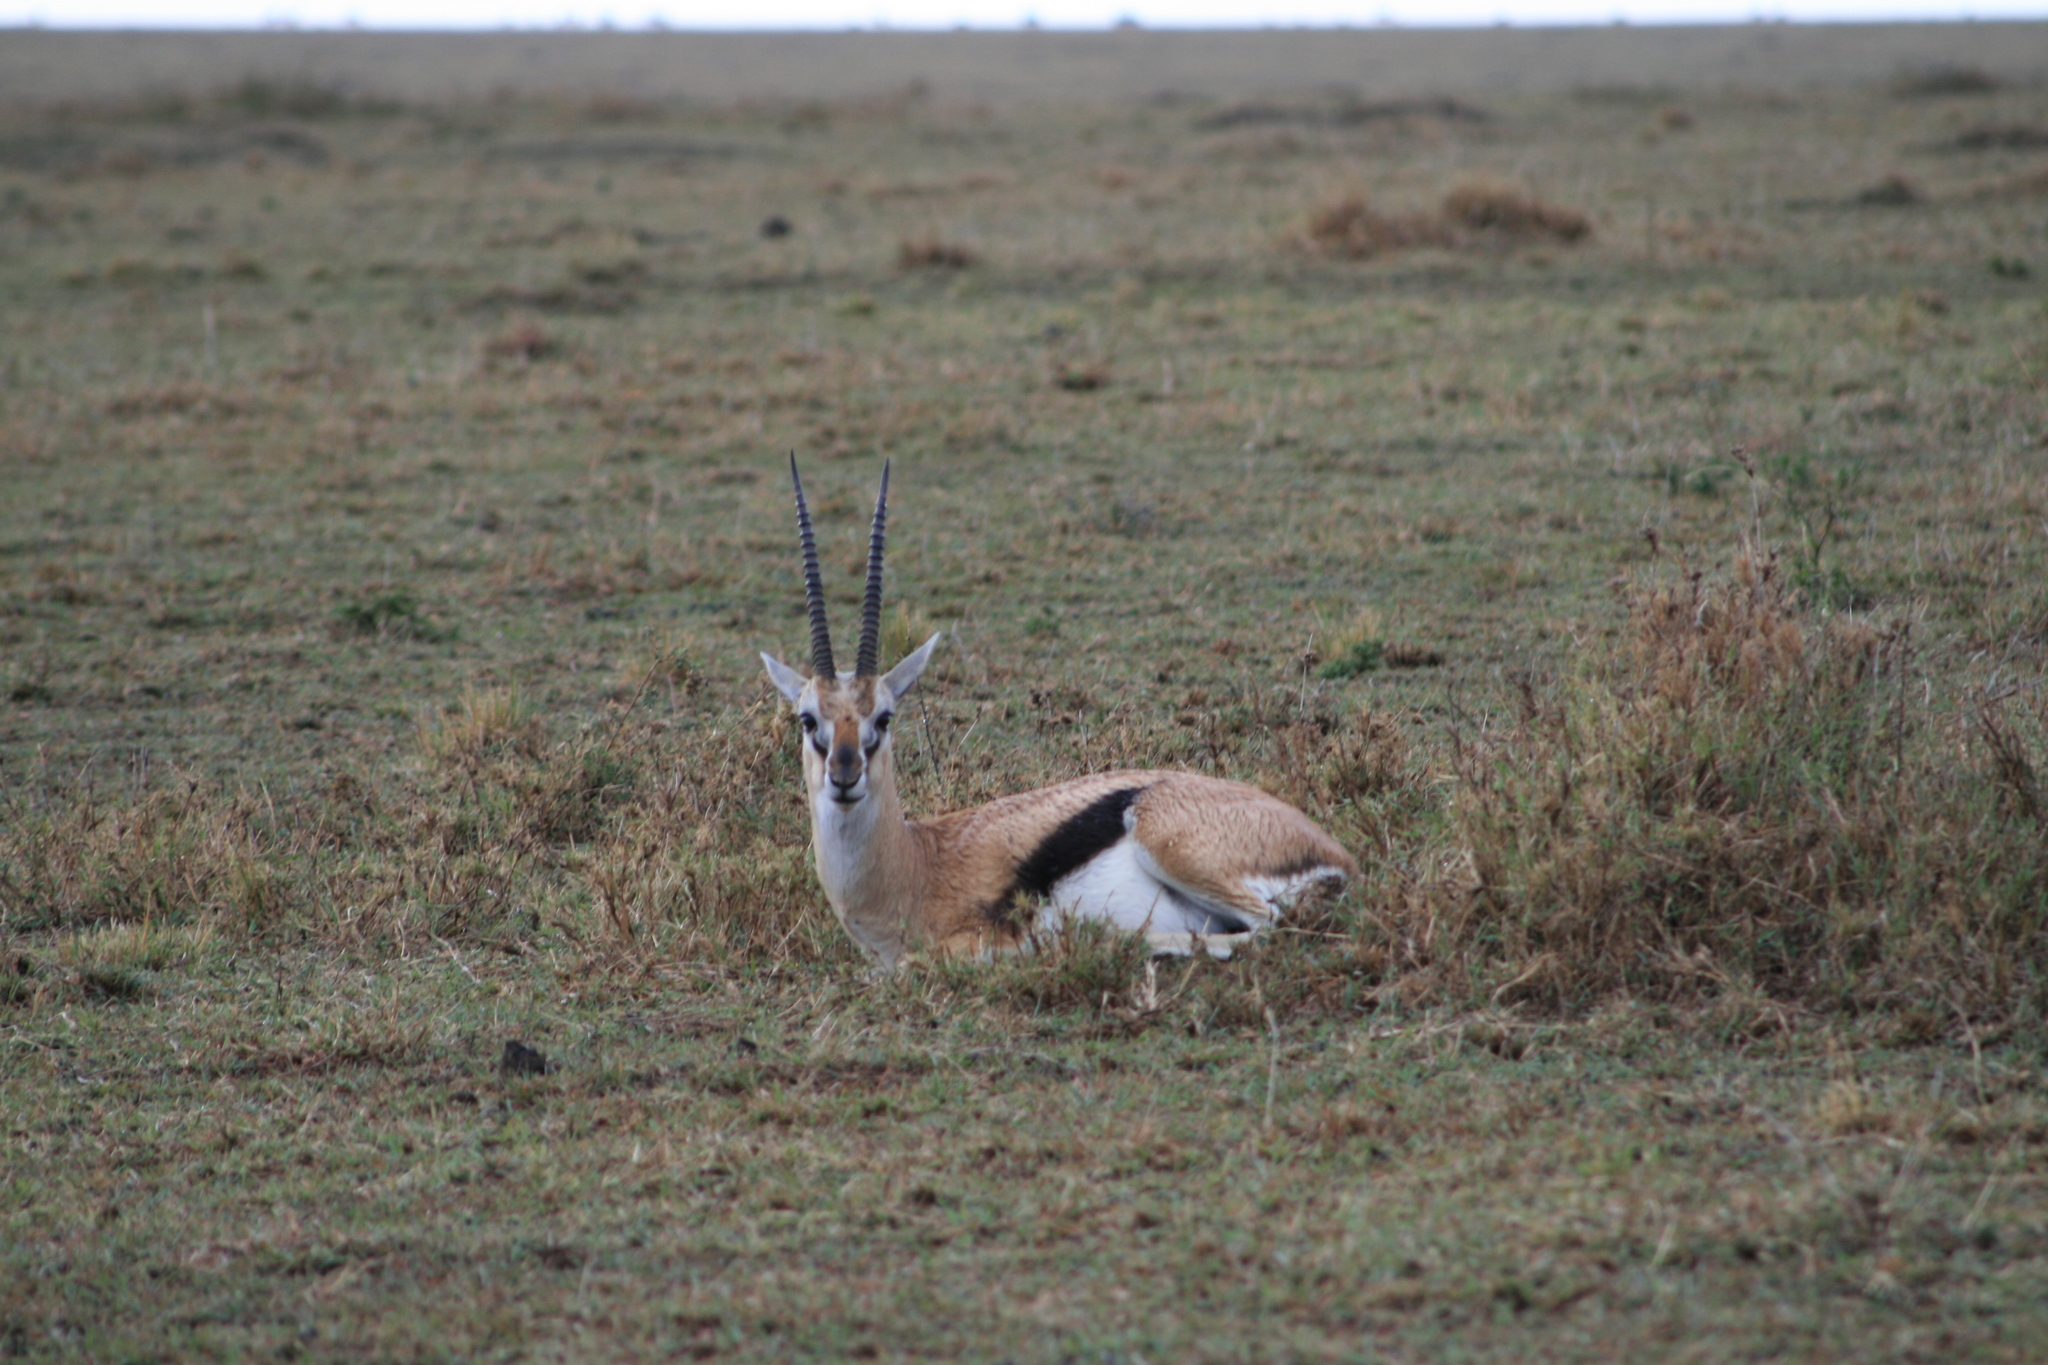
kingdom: Animalia
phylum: Chordata
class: Mammalia
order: Artiodactyla
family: Bovidae
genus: Eudorcas
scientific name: Eudorcas thomsonii
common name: Thomson's gazelle
